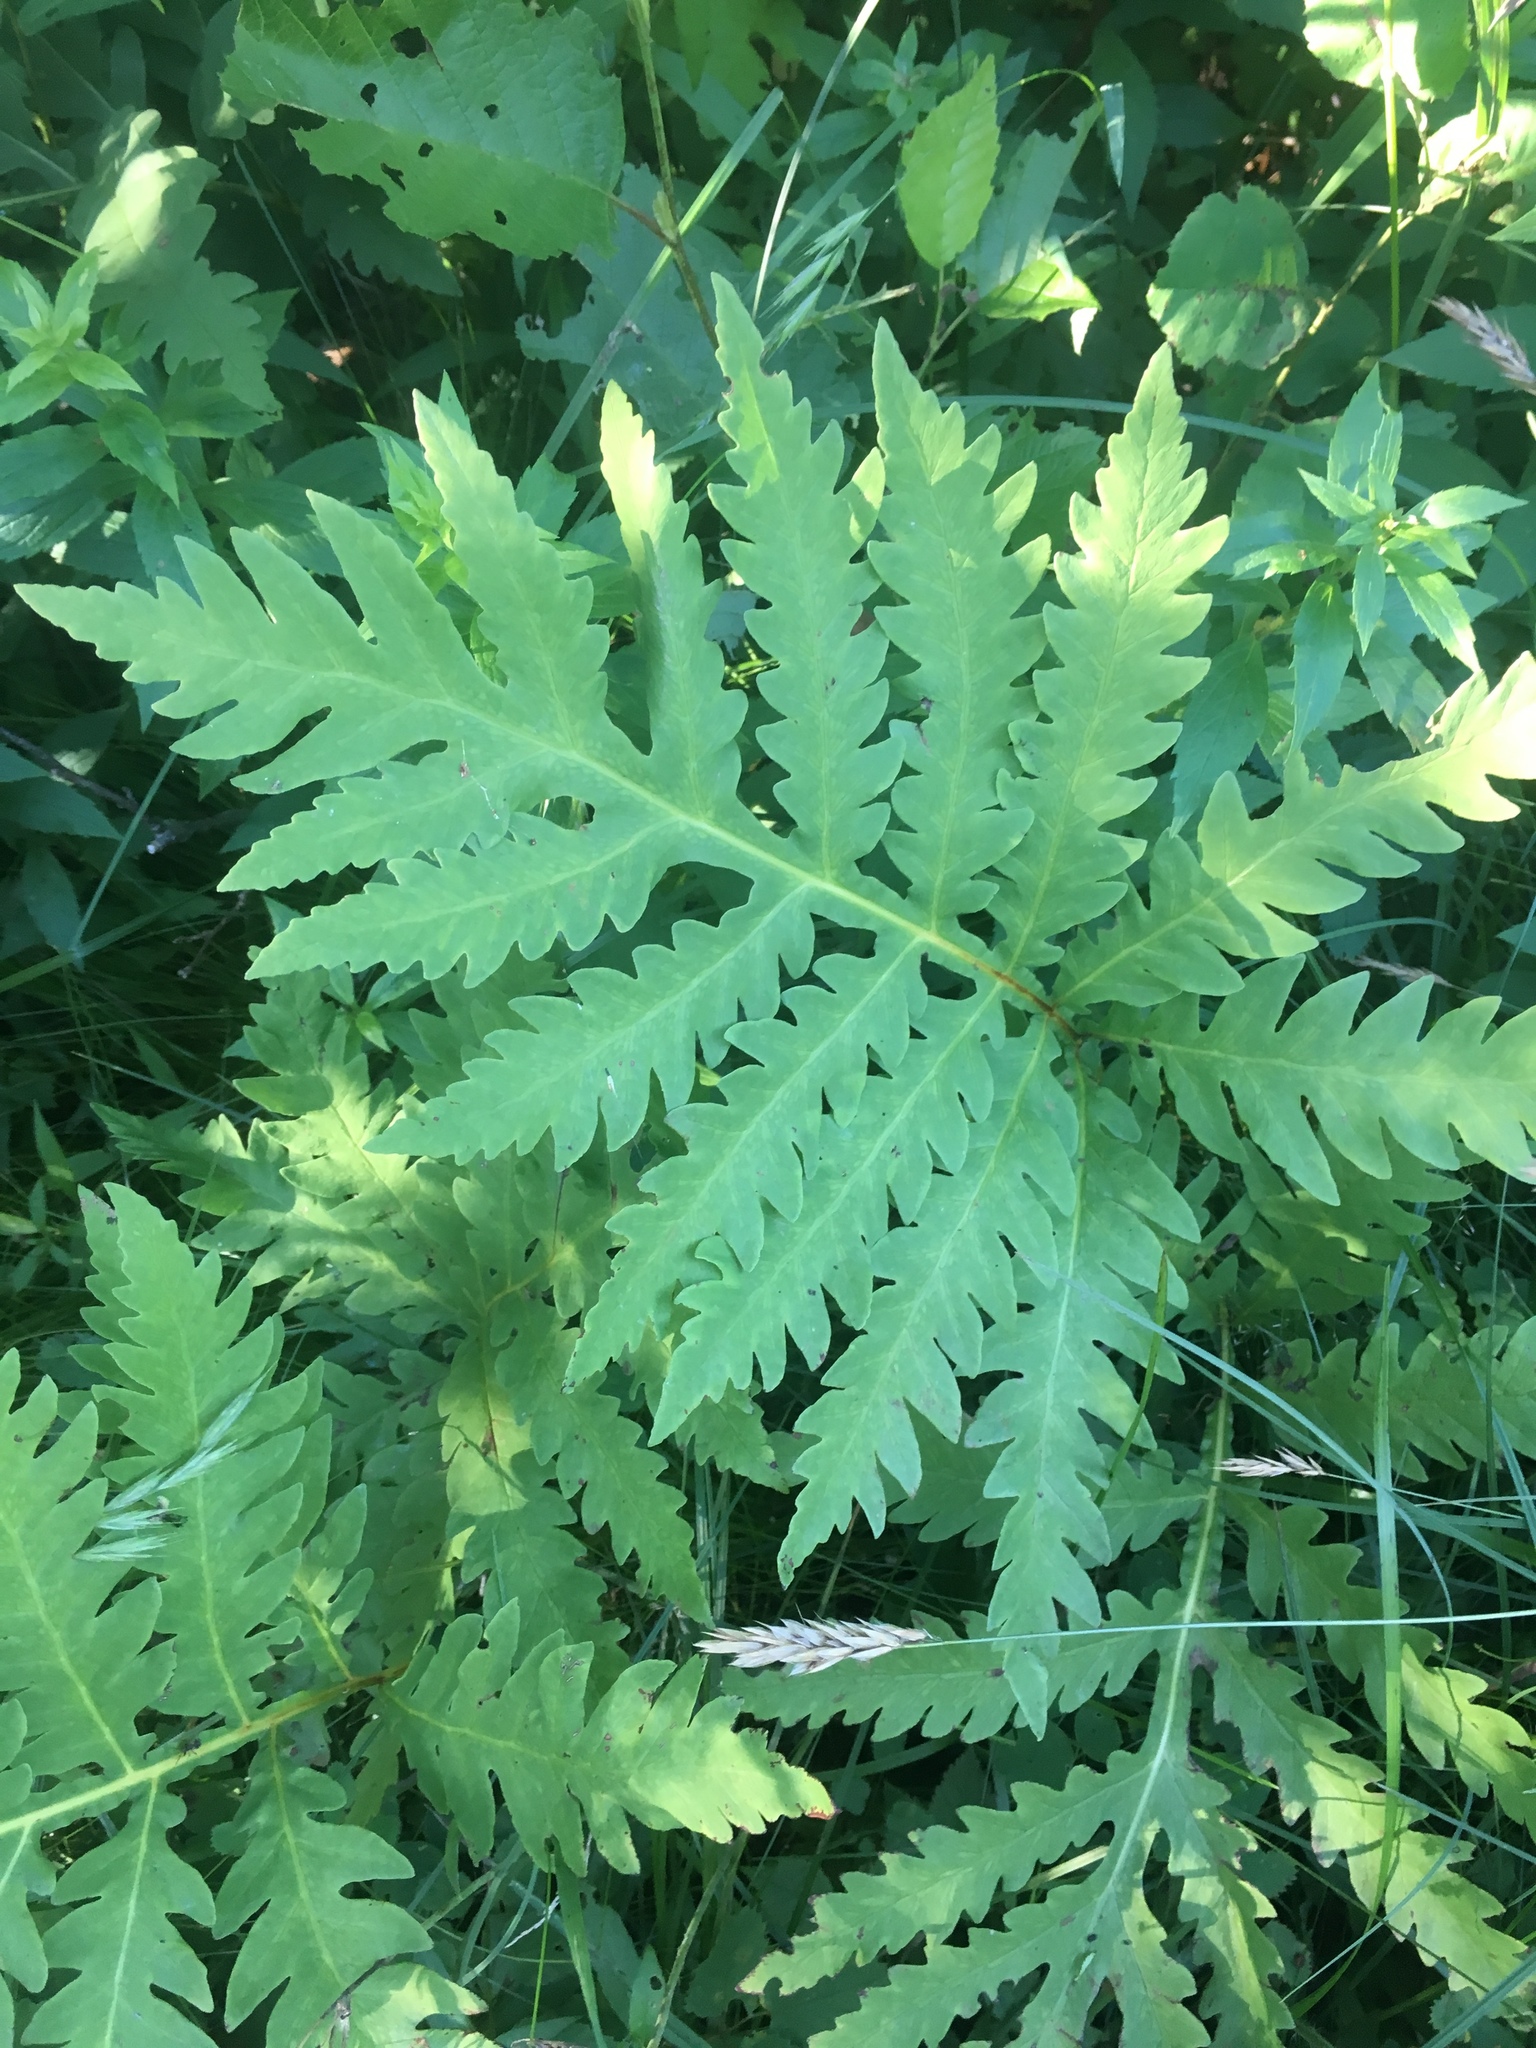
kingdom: Plantae
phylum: Tracheophyta
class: Polypodiopsida
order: Polypodiales
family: Onocleaceae
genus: Onoclea
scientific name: Onoclea sensibilis
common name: Sensitive fern
